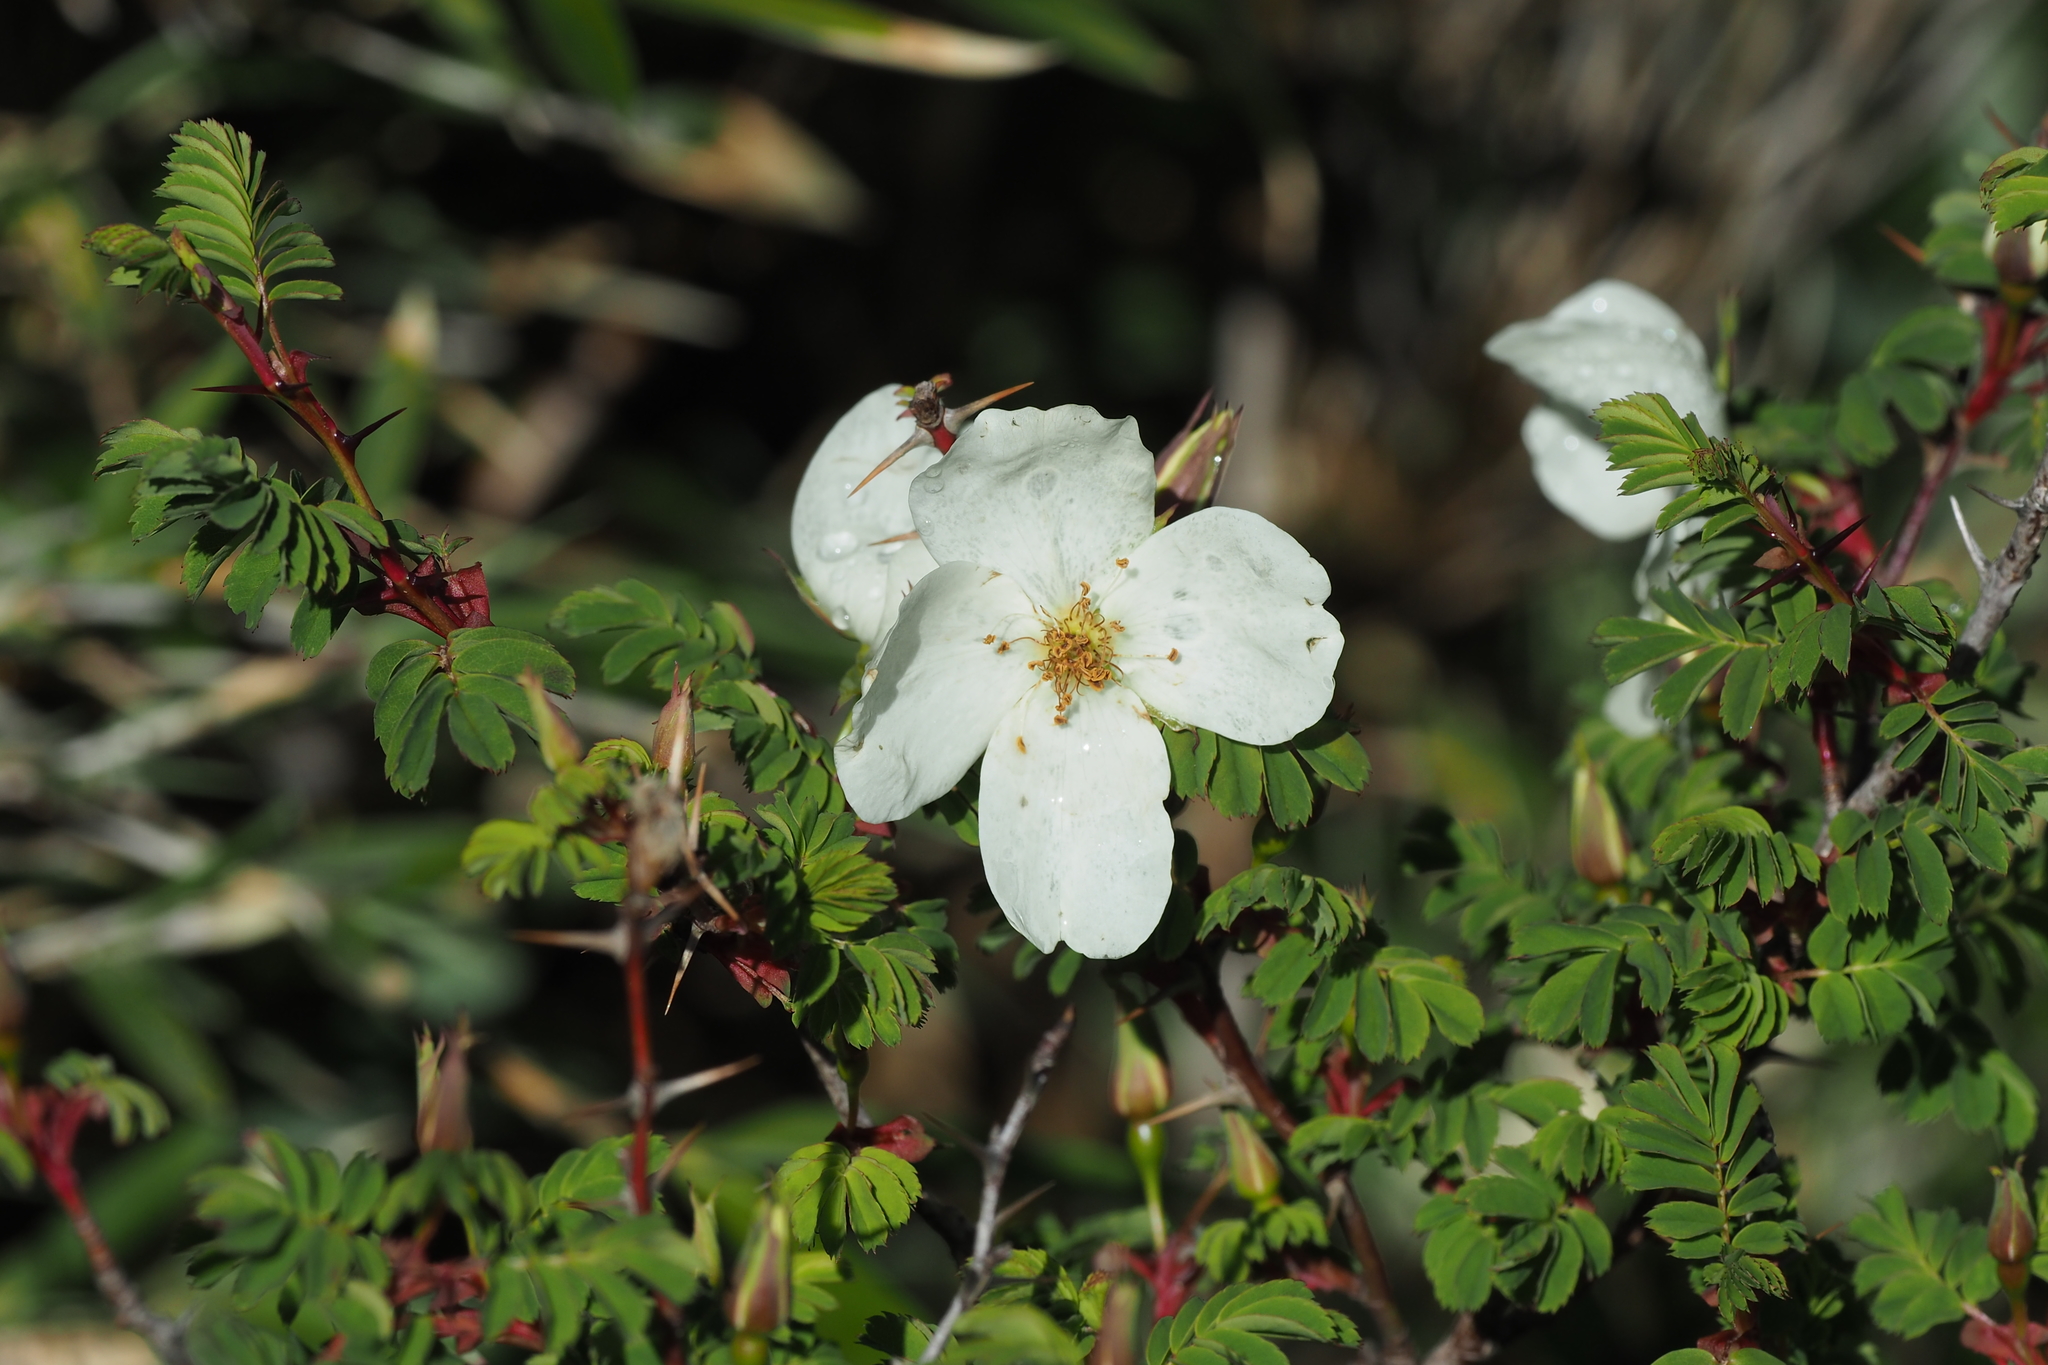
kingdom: Plantae
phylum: Tracheophyta
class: Magnoliopsida
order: Rosales
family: Rosaceae
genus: Rosa
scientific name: Rosa morrisonensis
